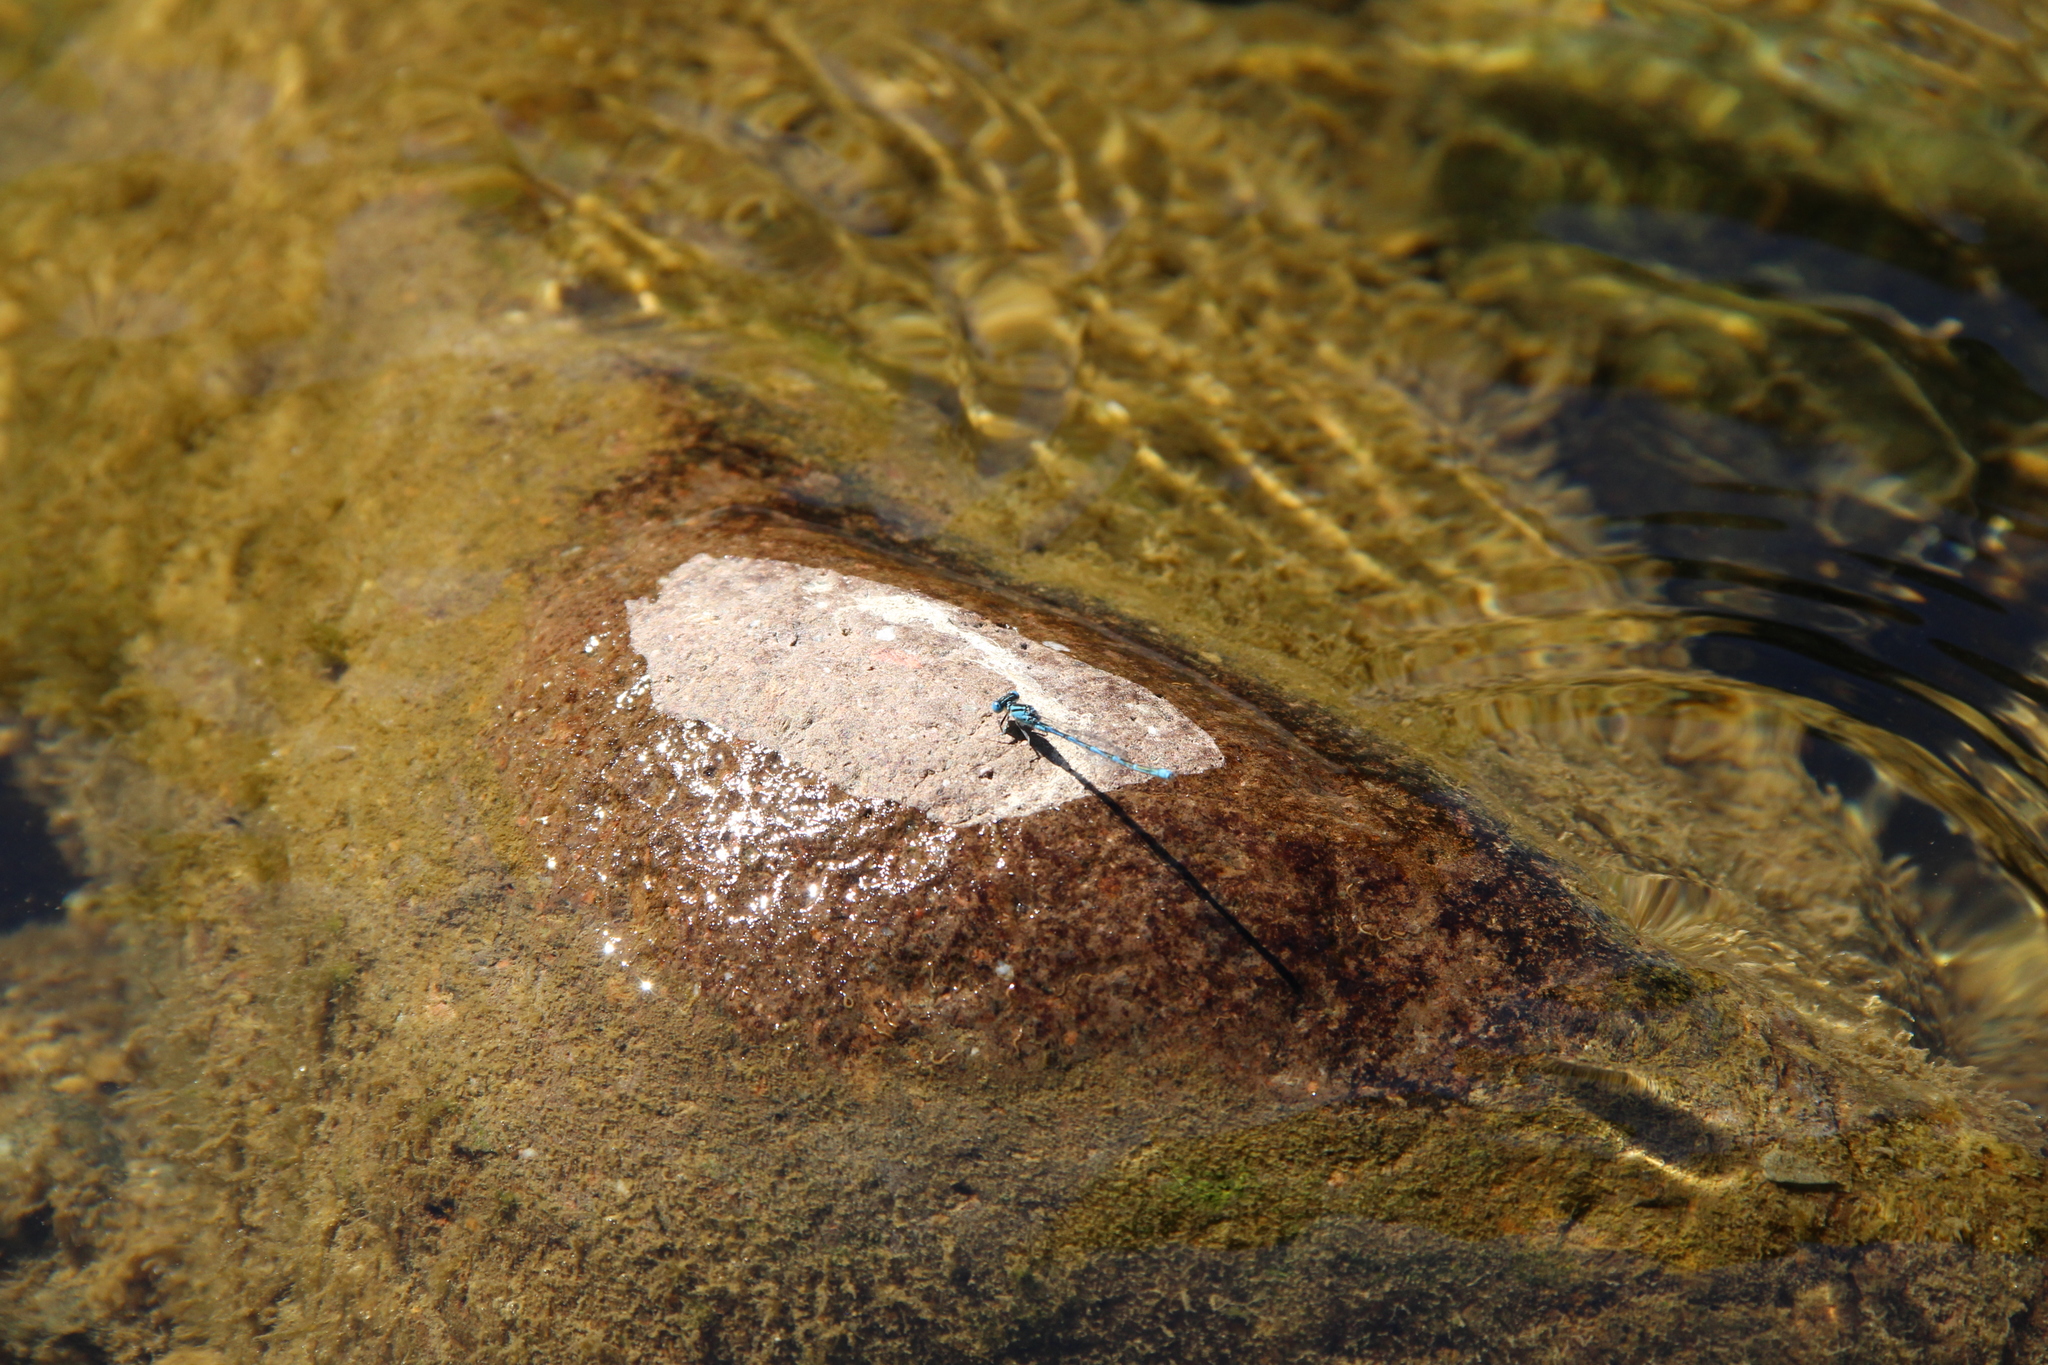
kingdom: Animalia
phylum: Arthropoda
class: Insecta
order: Odonata
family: Coenagrionidae
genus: Erythromma
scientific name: Erythromma lindenii
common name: Blue-eye
